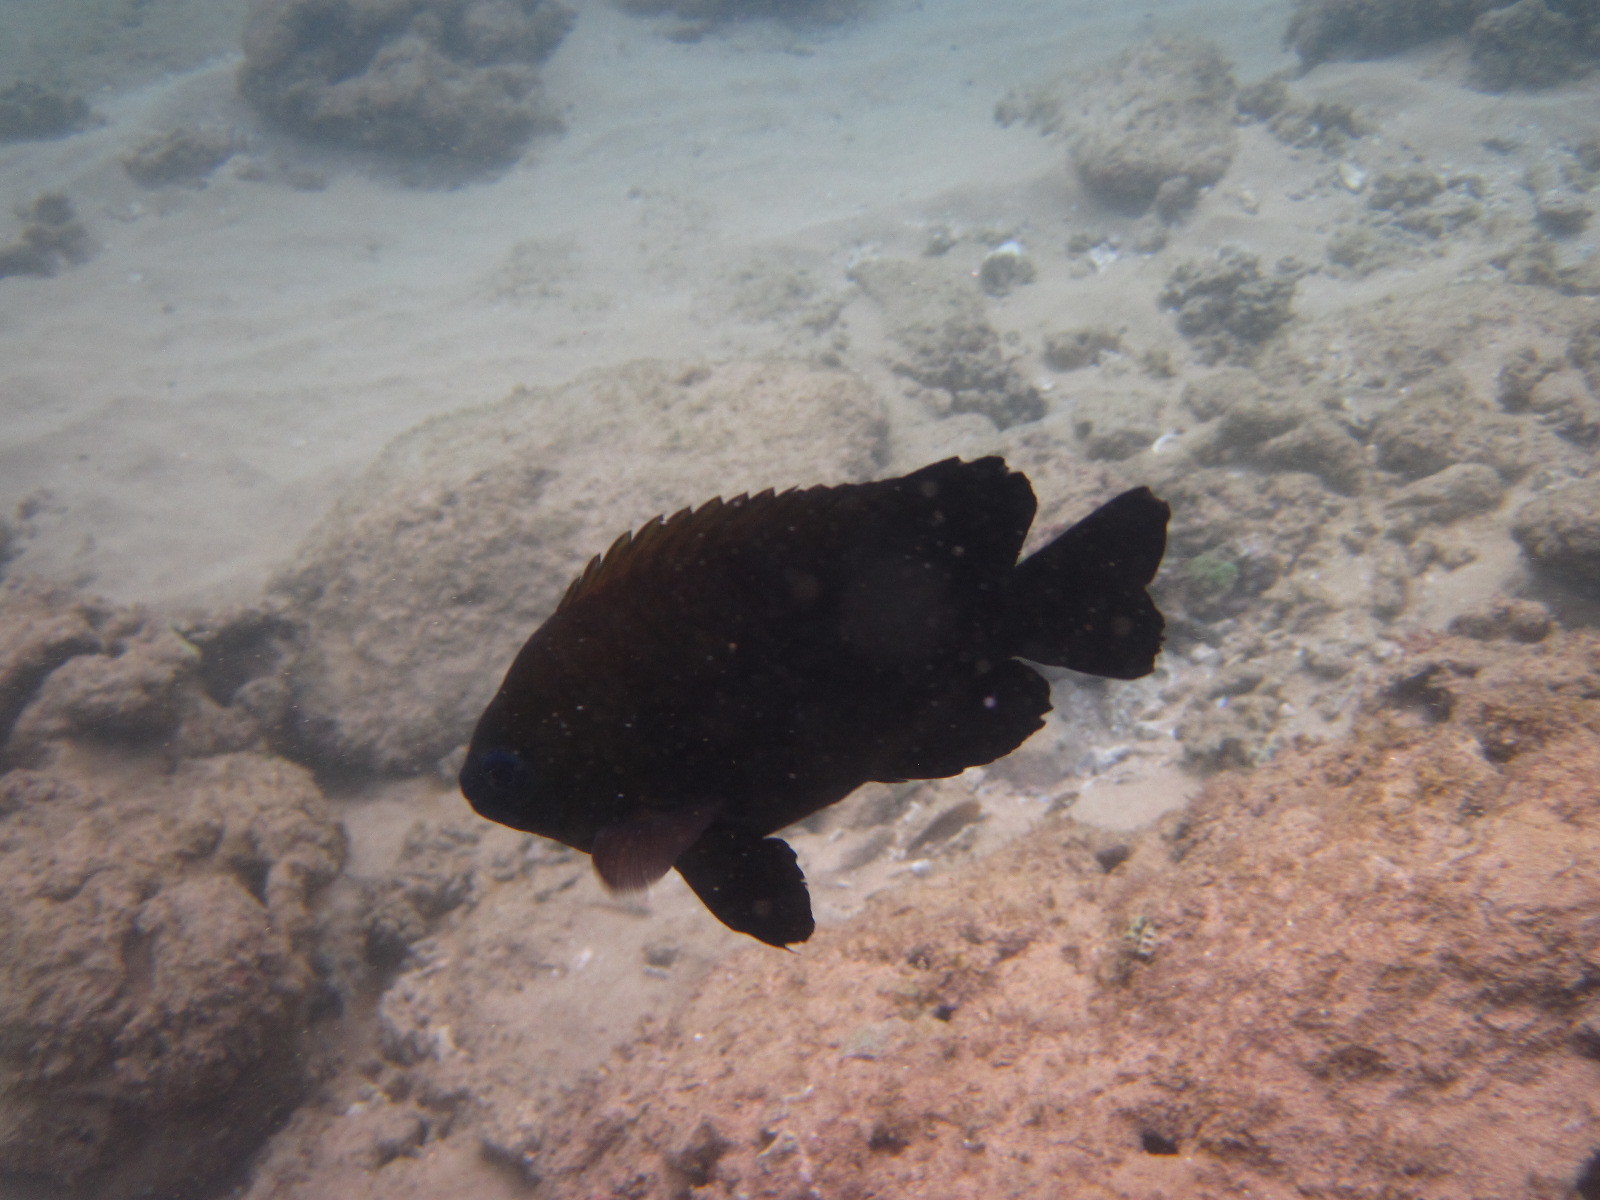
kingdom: Animalia
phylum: Chordata
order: Perciformes
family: Pomacentridae
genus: Neoglyphidodon
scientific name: Neoglyphidodon melas
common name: Black damsel
